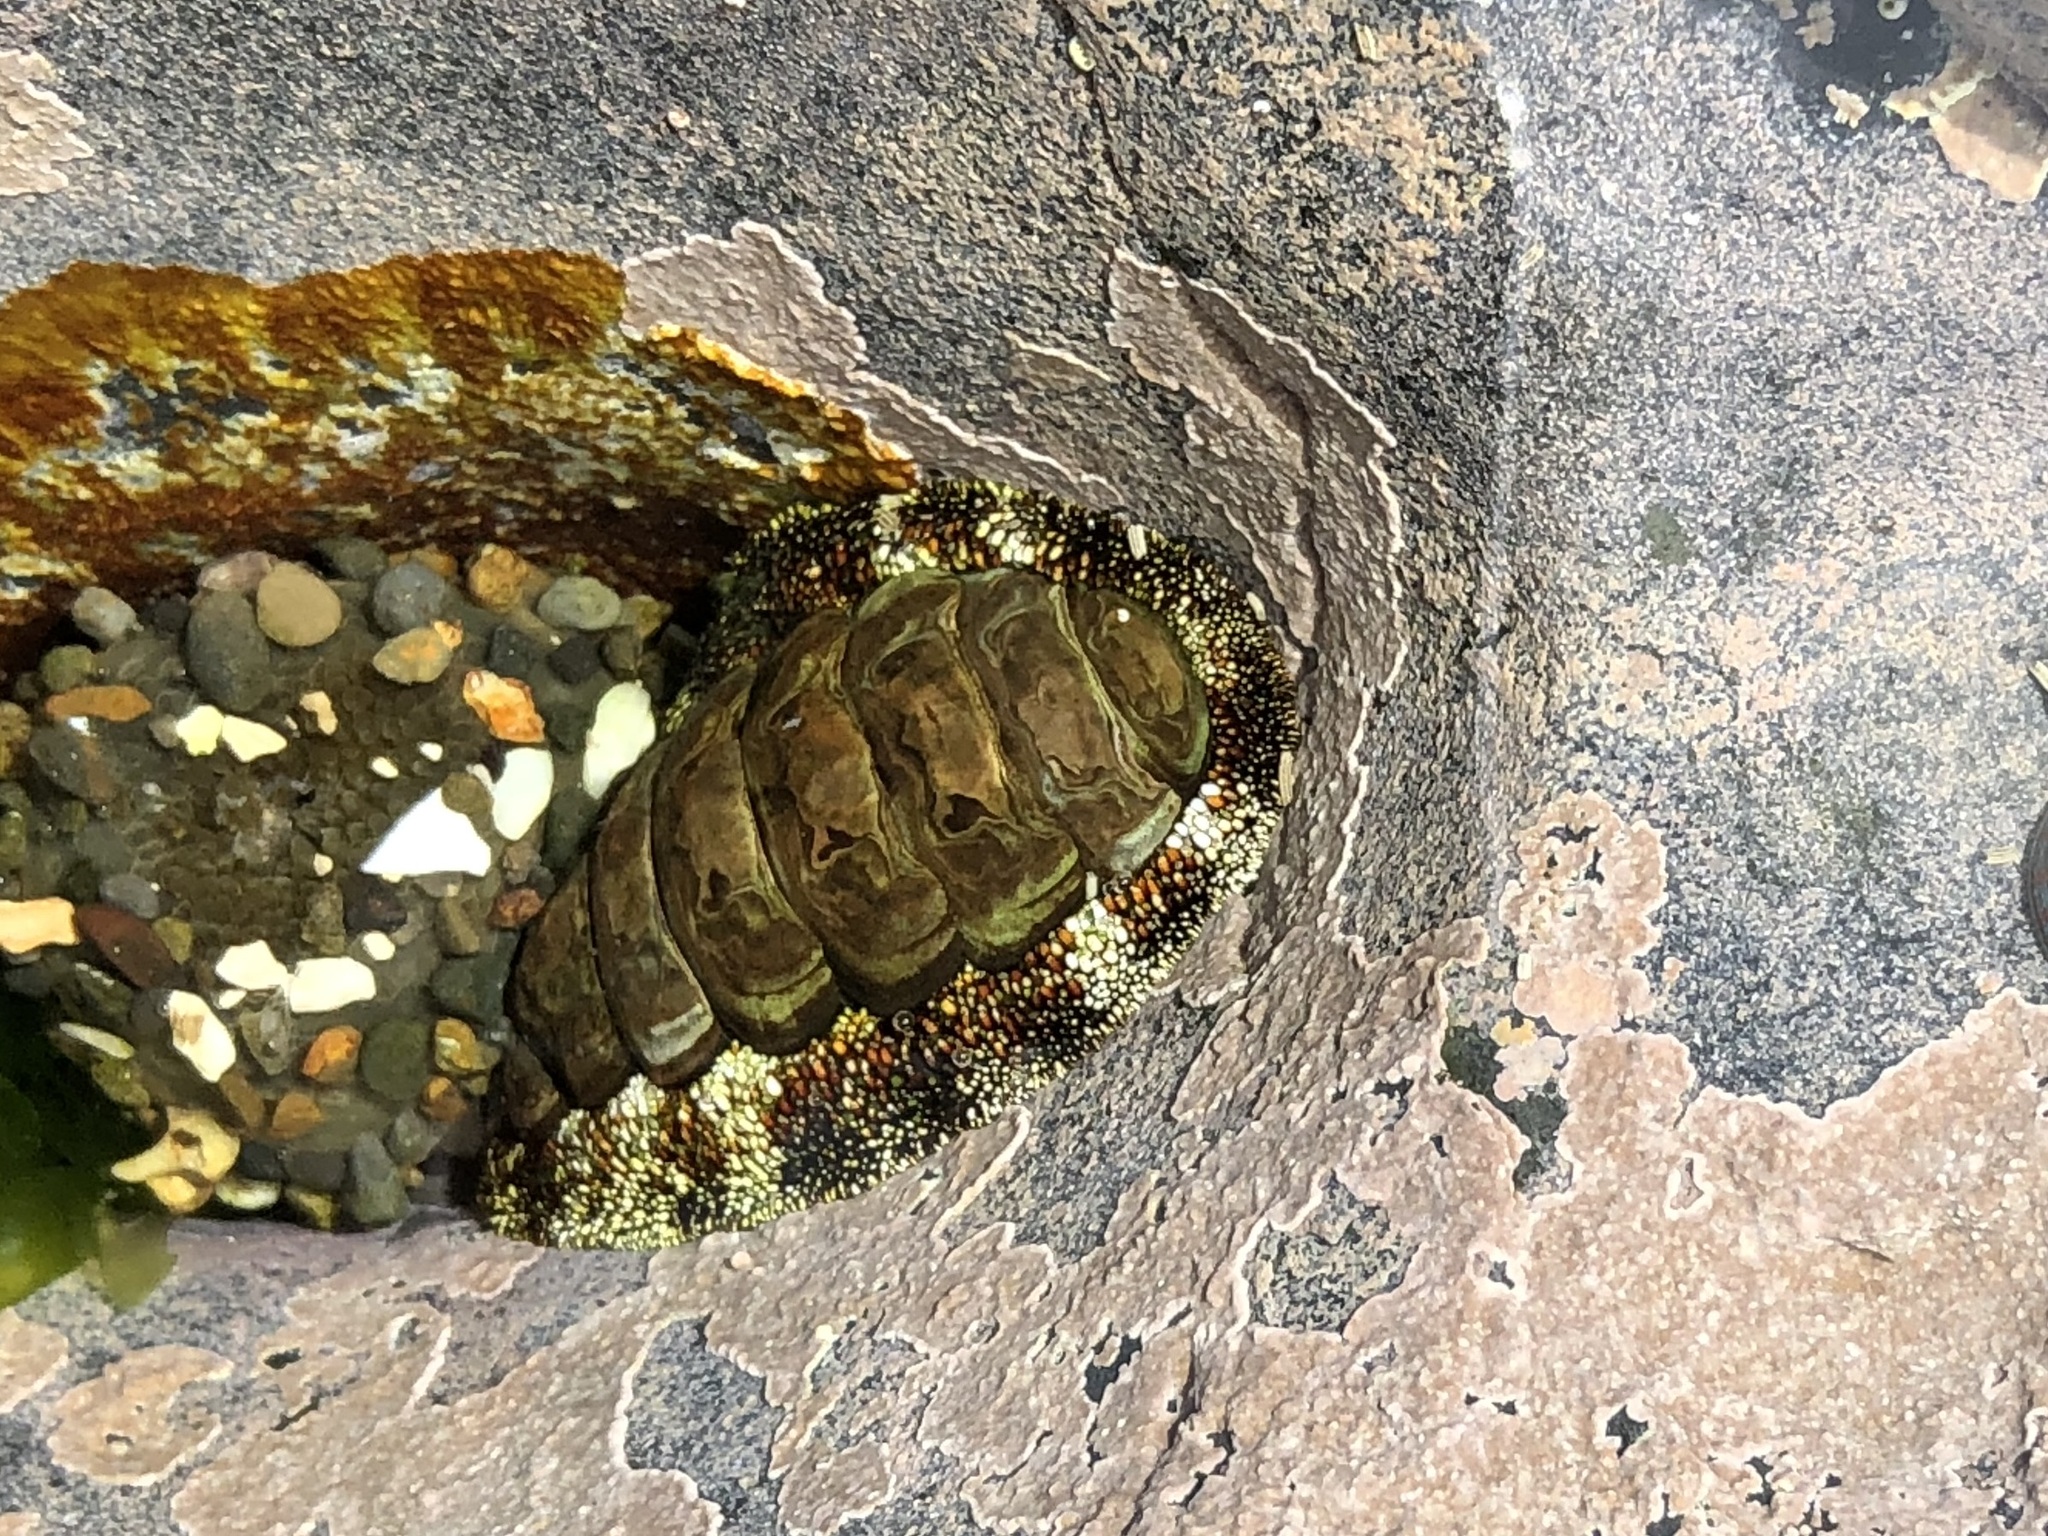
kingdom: Animalia
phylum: Mollusca
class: Polyplacophora
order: Chitonida
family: Chitonidae
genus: Liolophura
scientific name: Liolophura japonica
